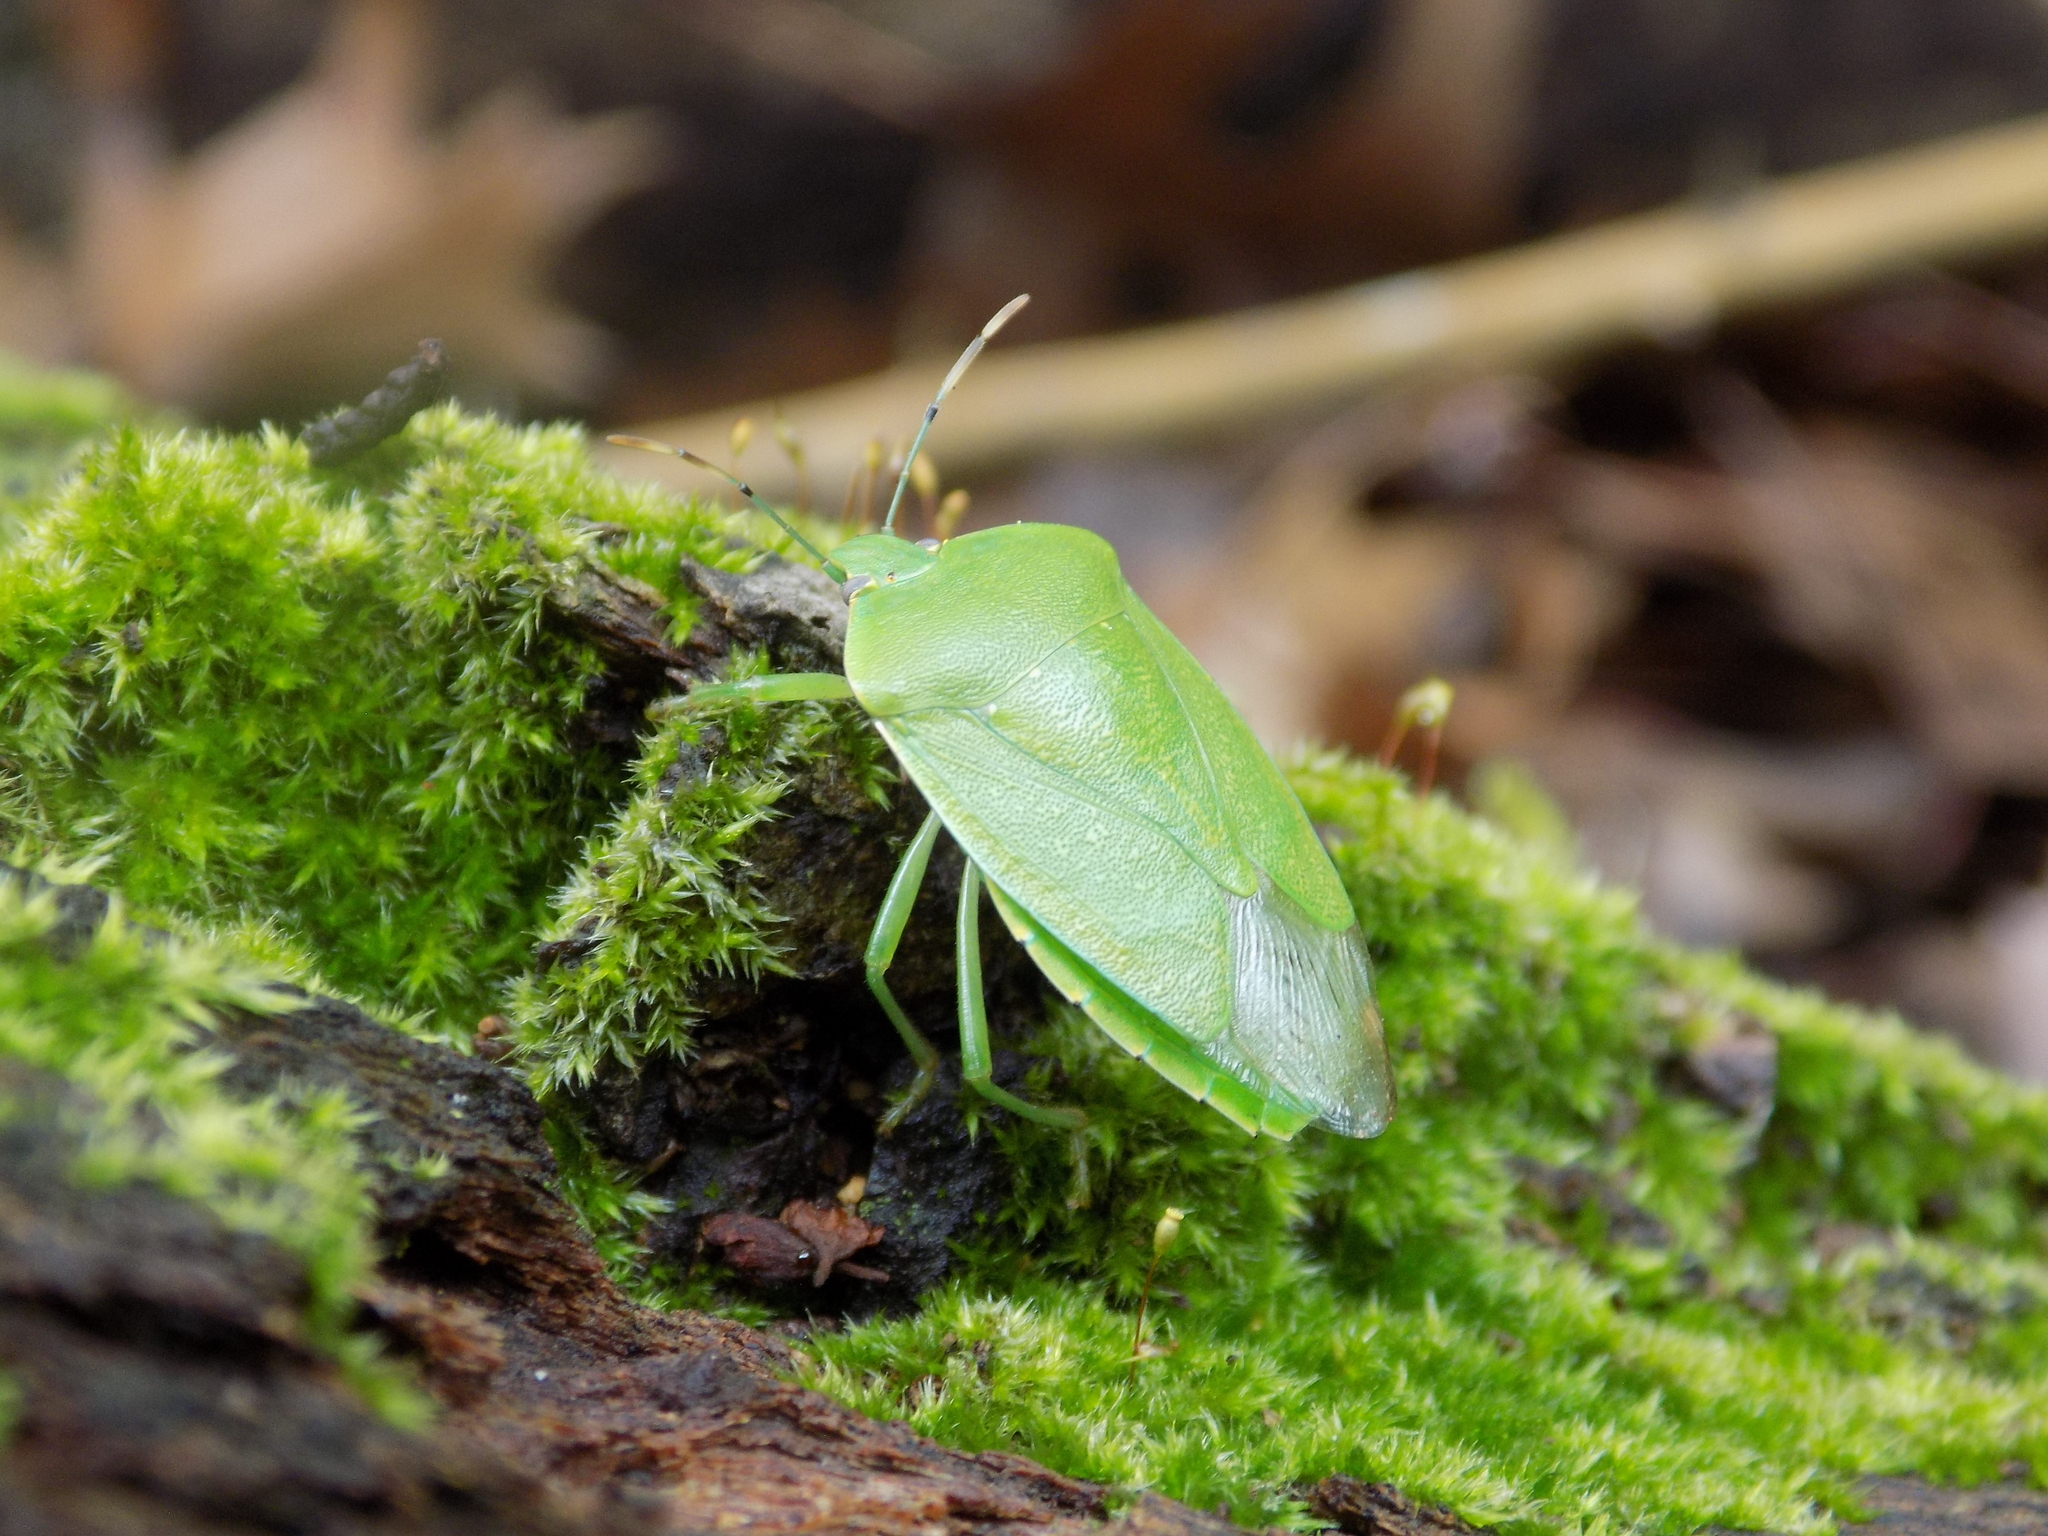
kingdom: Animalia
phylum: Arthropoda
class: Insecta
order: Hemiptera
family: Pentatomidae
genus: Chinavia
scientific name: Chinavia hilaris
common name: Green stink bug
